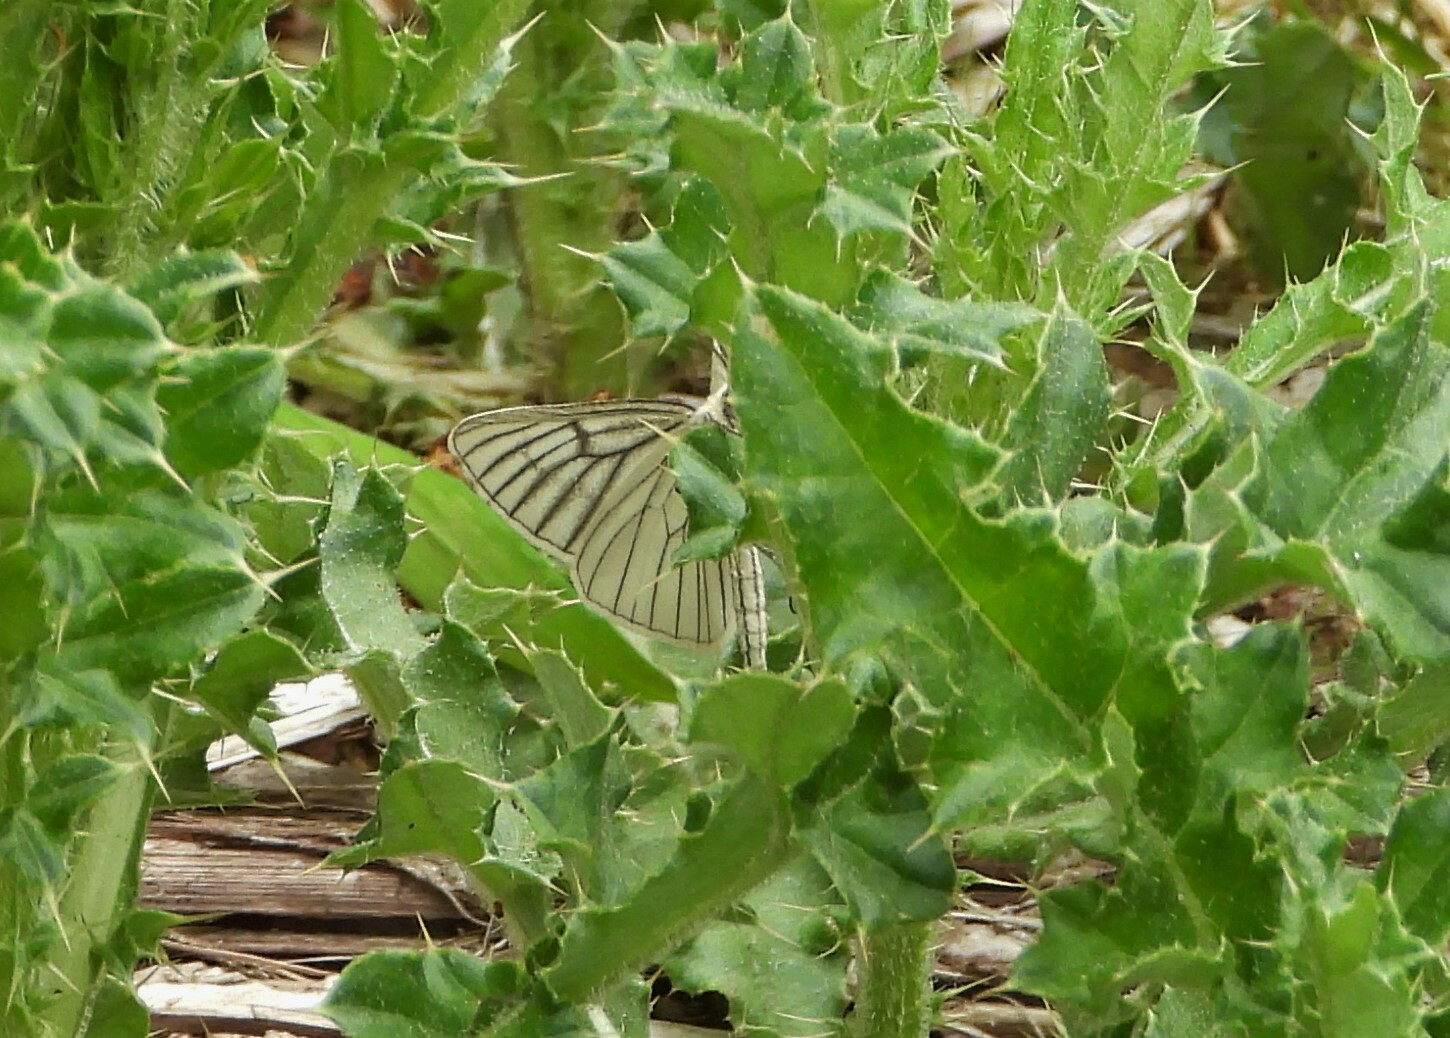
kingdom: Animalia
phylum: Arthropoda
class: Insecta
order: Lepidoptera
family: Geometridae
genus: Siona
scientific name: Siona lineata
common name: Black-veined moth
